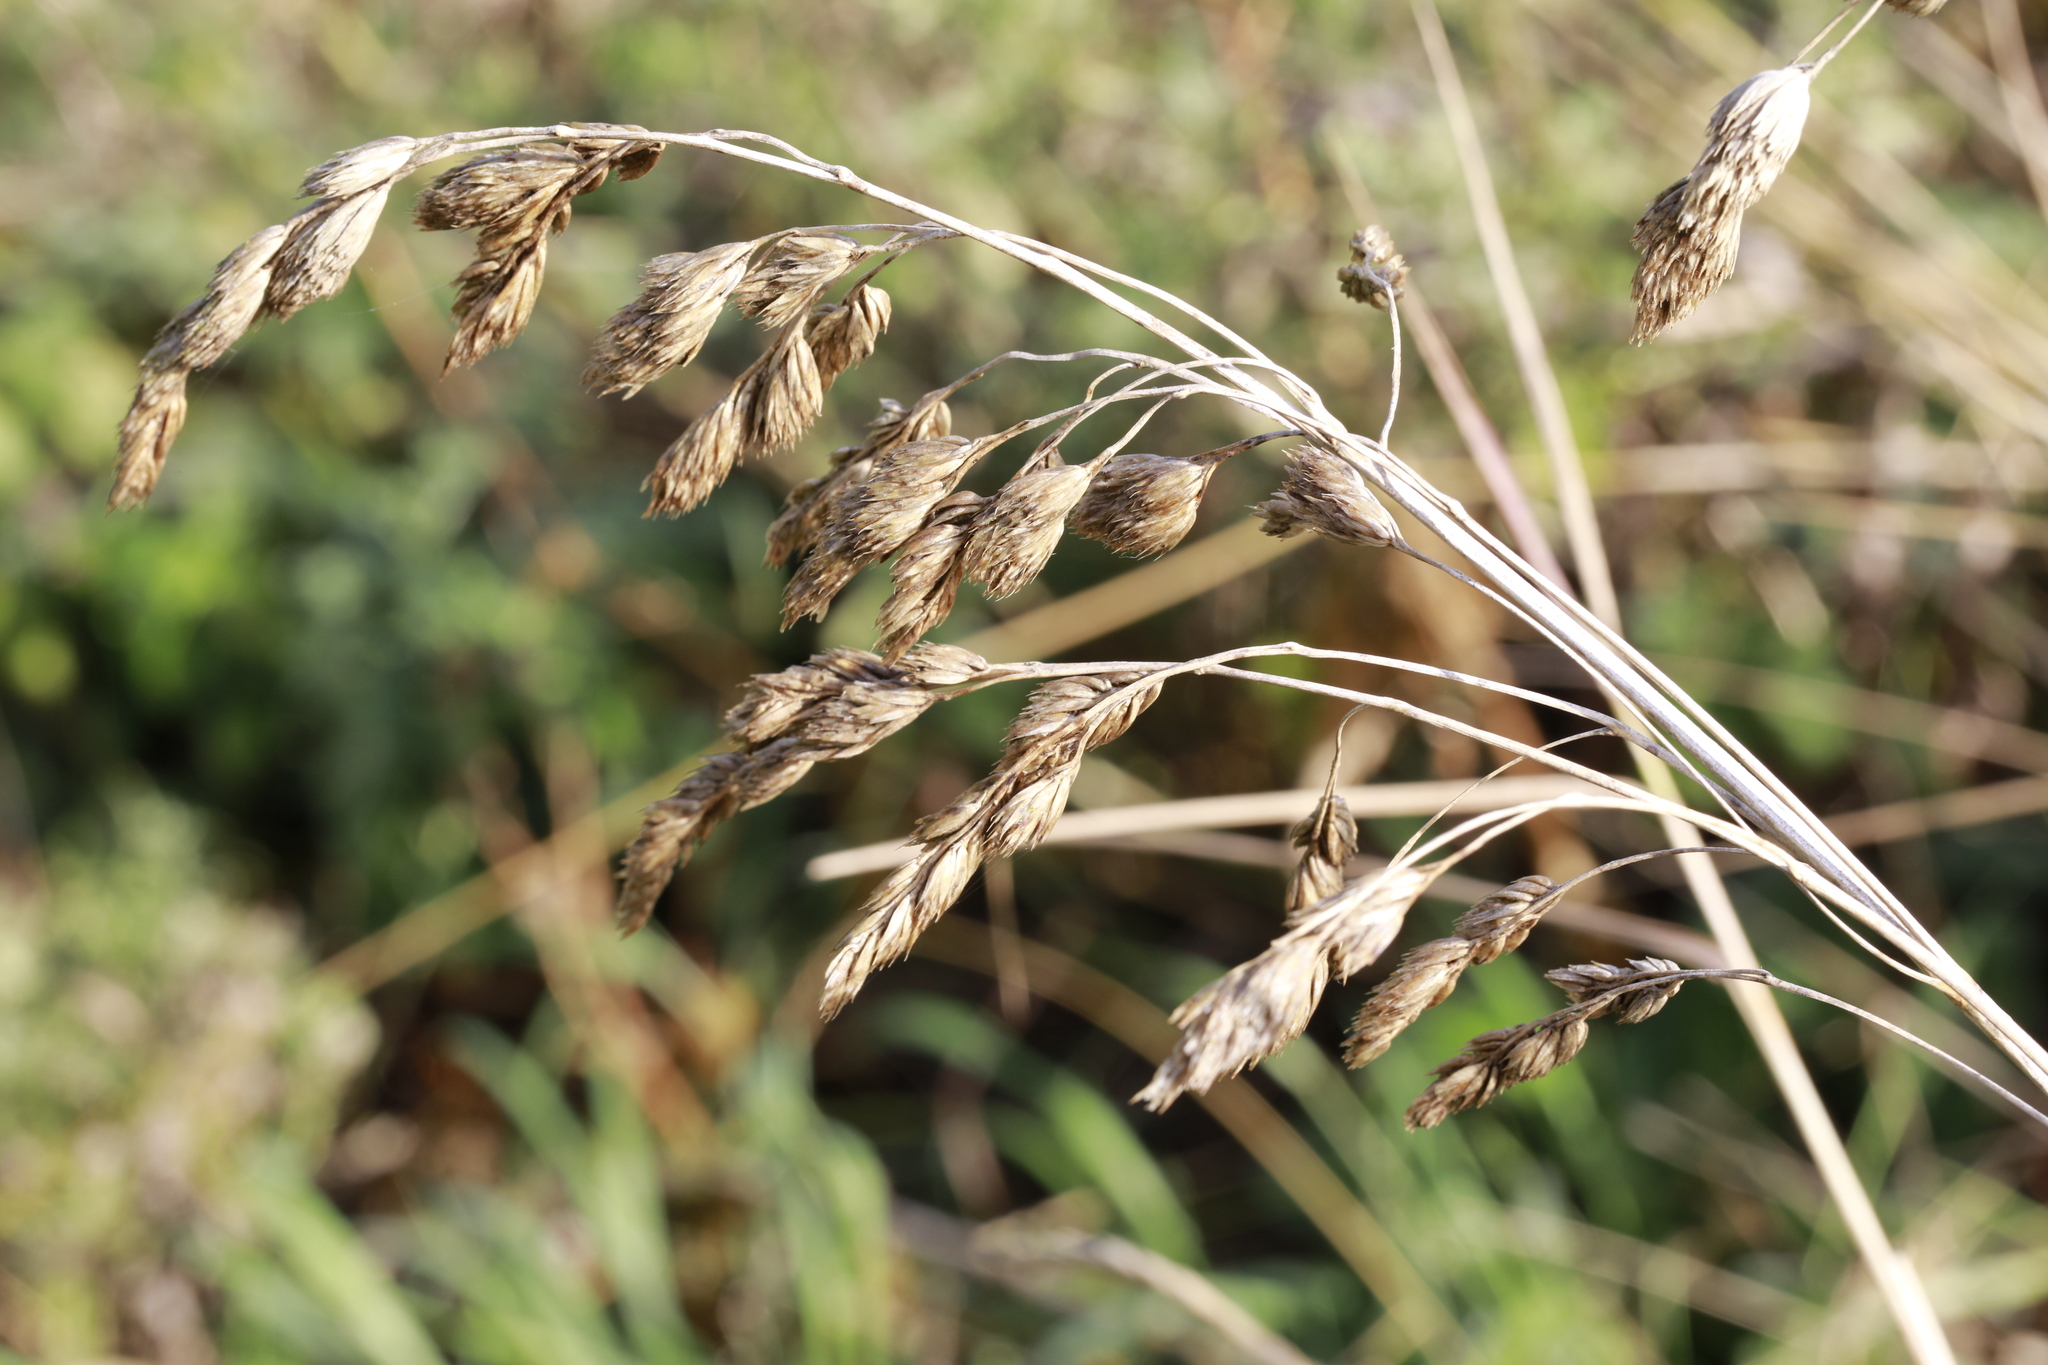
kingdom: Plantae
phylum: Tracheophyta
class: Liliopsida
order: Poales
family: Poaceae
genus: Dactylis
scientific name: Dactylis glomerata
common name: Orchardgrass
